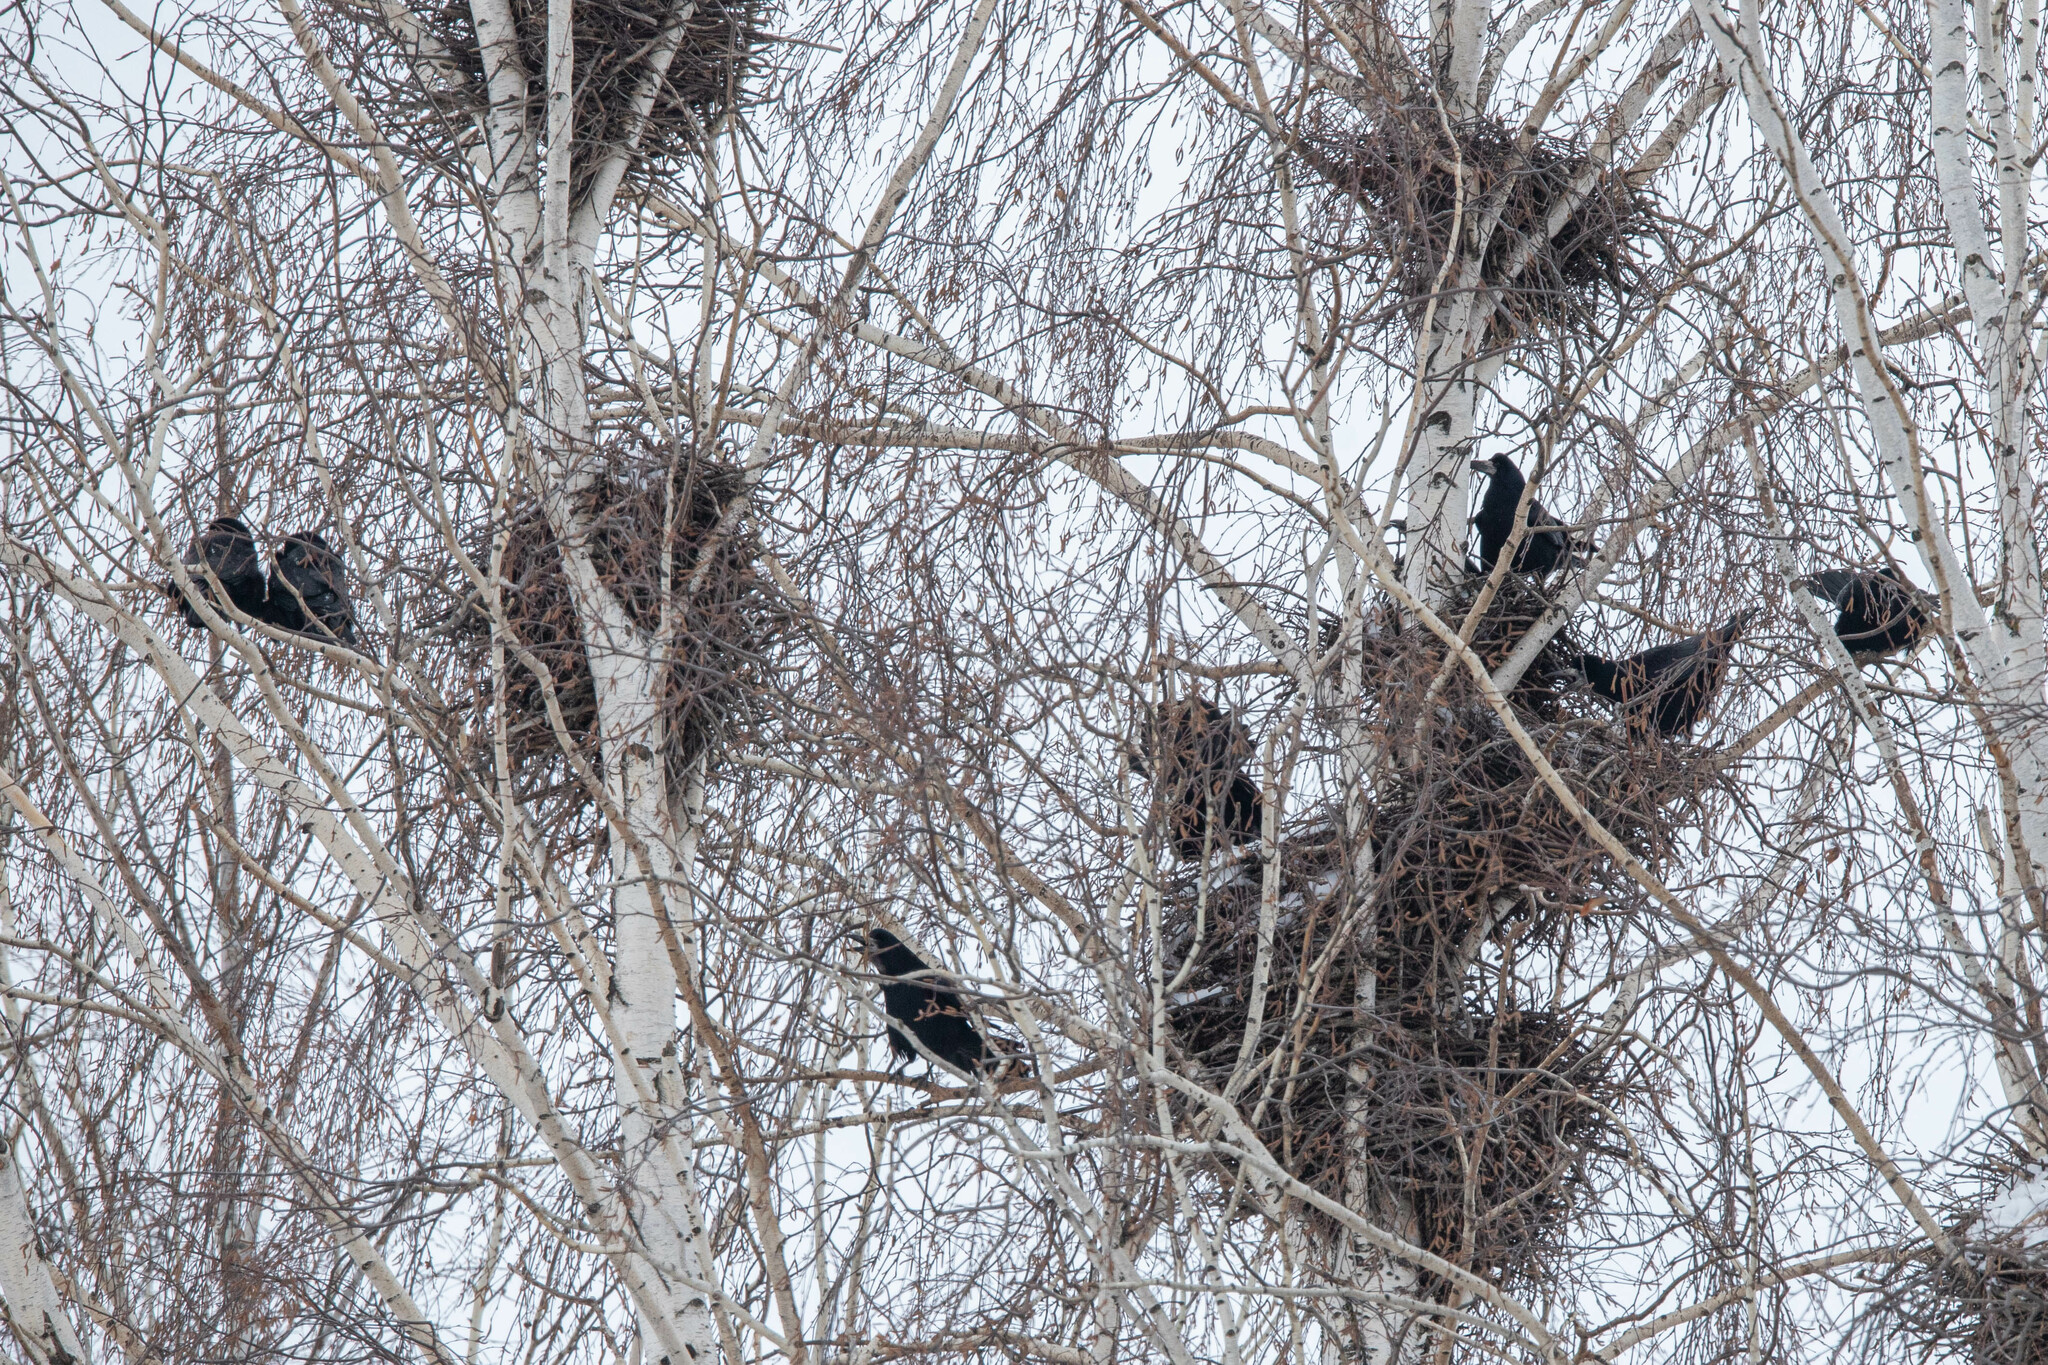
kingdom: Animalia
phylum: Chordata
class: Aves
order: Passeriformes
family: Corvidae
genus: Corvus
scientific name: Corvus frugilegus
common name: Rook
